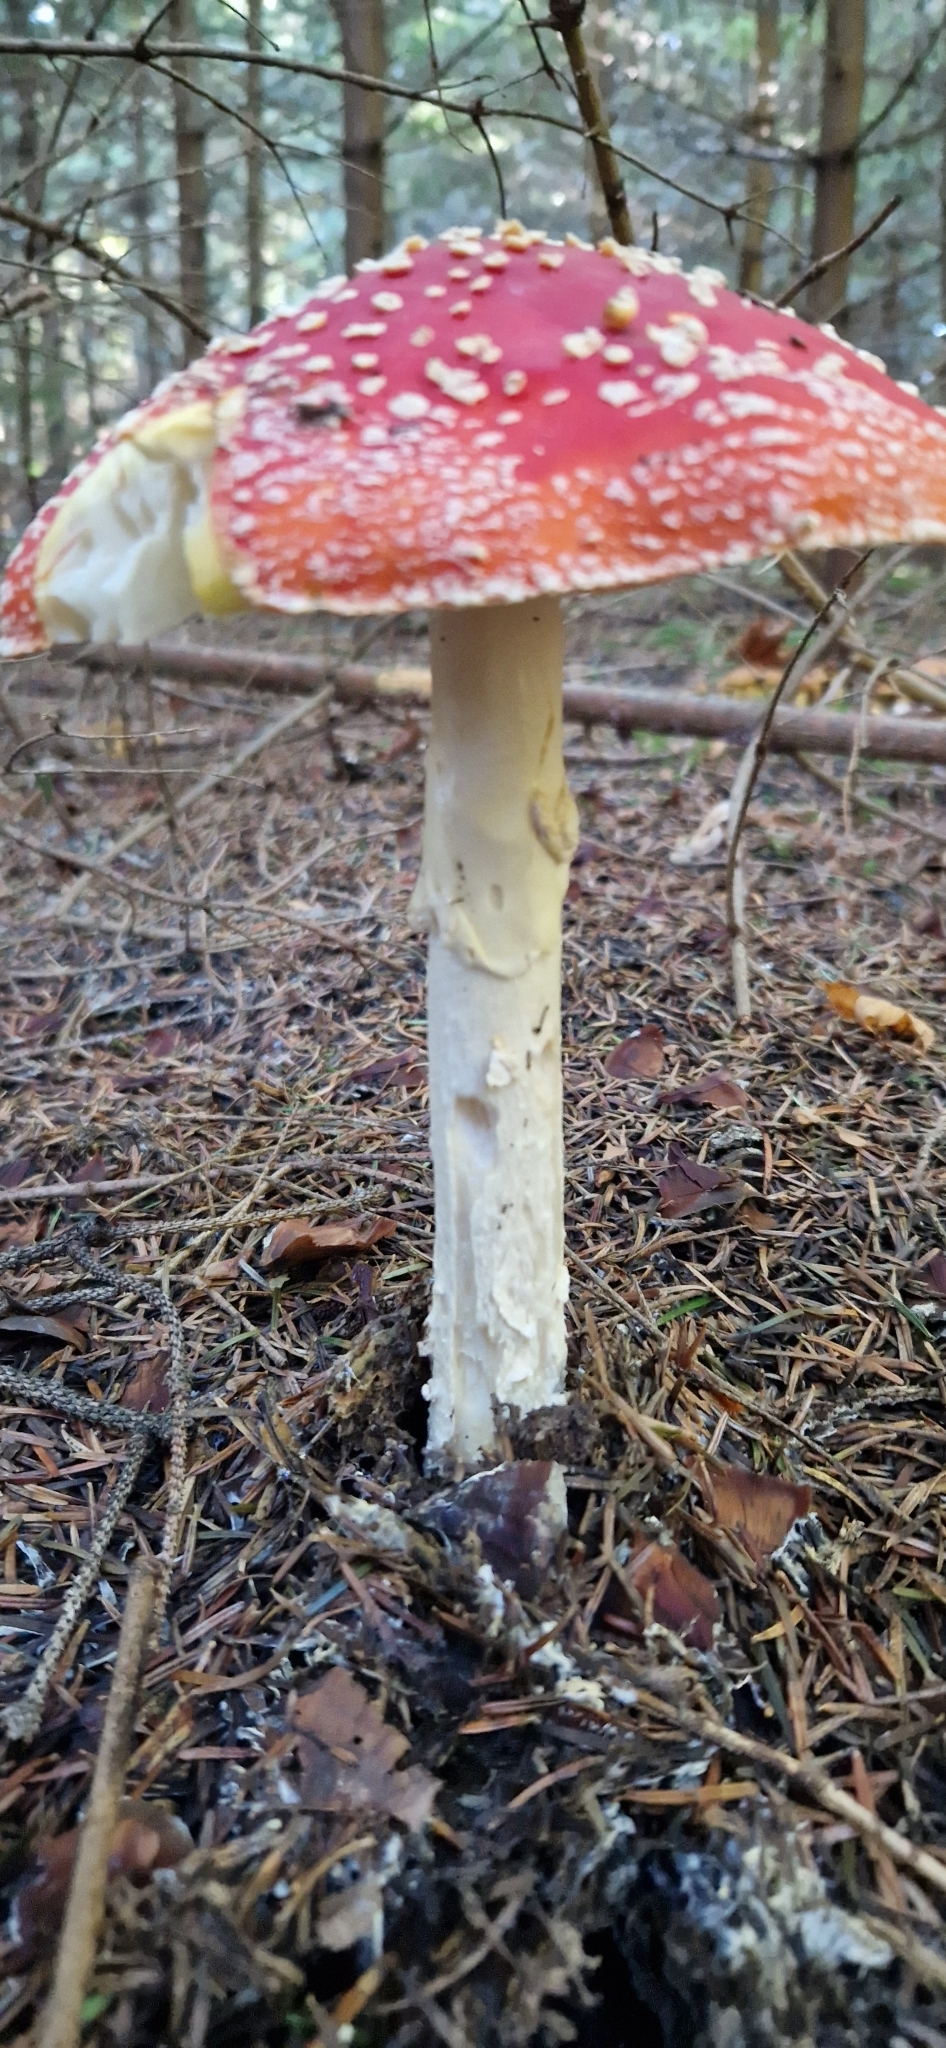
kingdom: Fungi
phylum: Basidiomycota
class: Agaricomycetes
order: Agaricales
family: Amanitaceae
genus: Amanita
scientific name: Amanita muscaria
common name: Fly agaric
